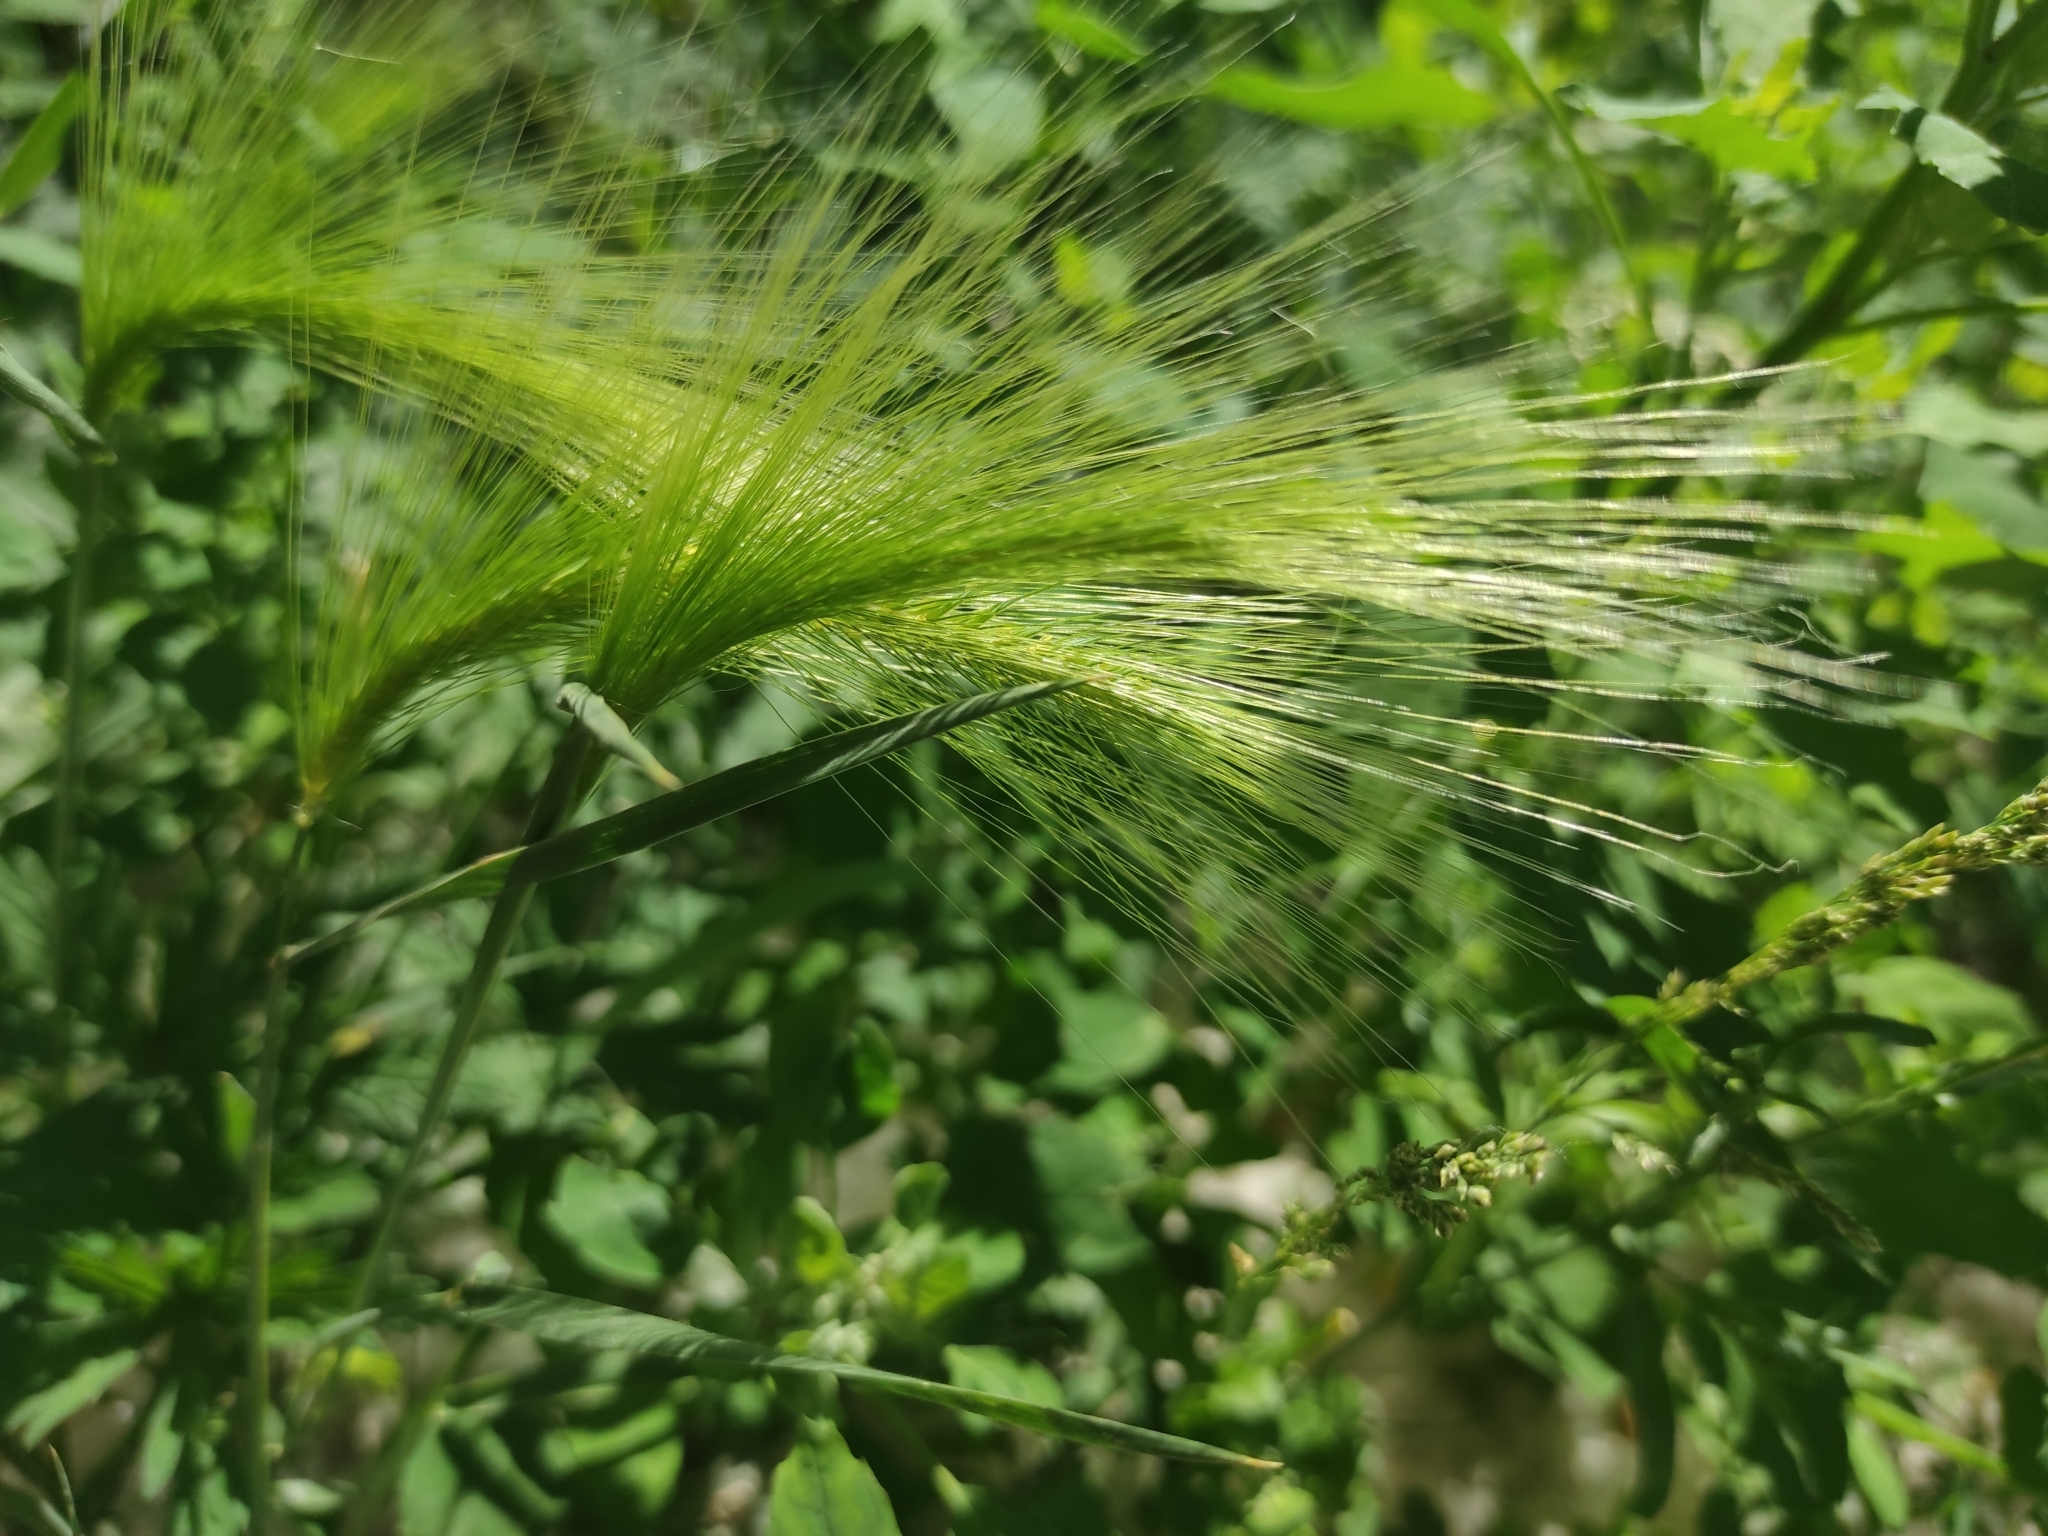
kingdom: Plantae
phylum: Tracheophyta
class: Liliopsida
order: Poales
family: Poaceae
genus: Hordeum
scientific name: Hordeum jubatum
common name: Foxtail barley
